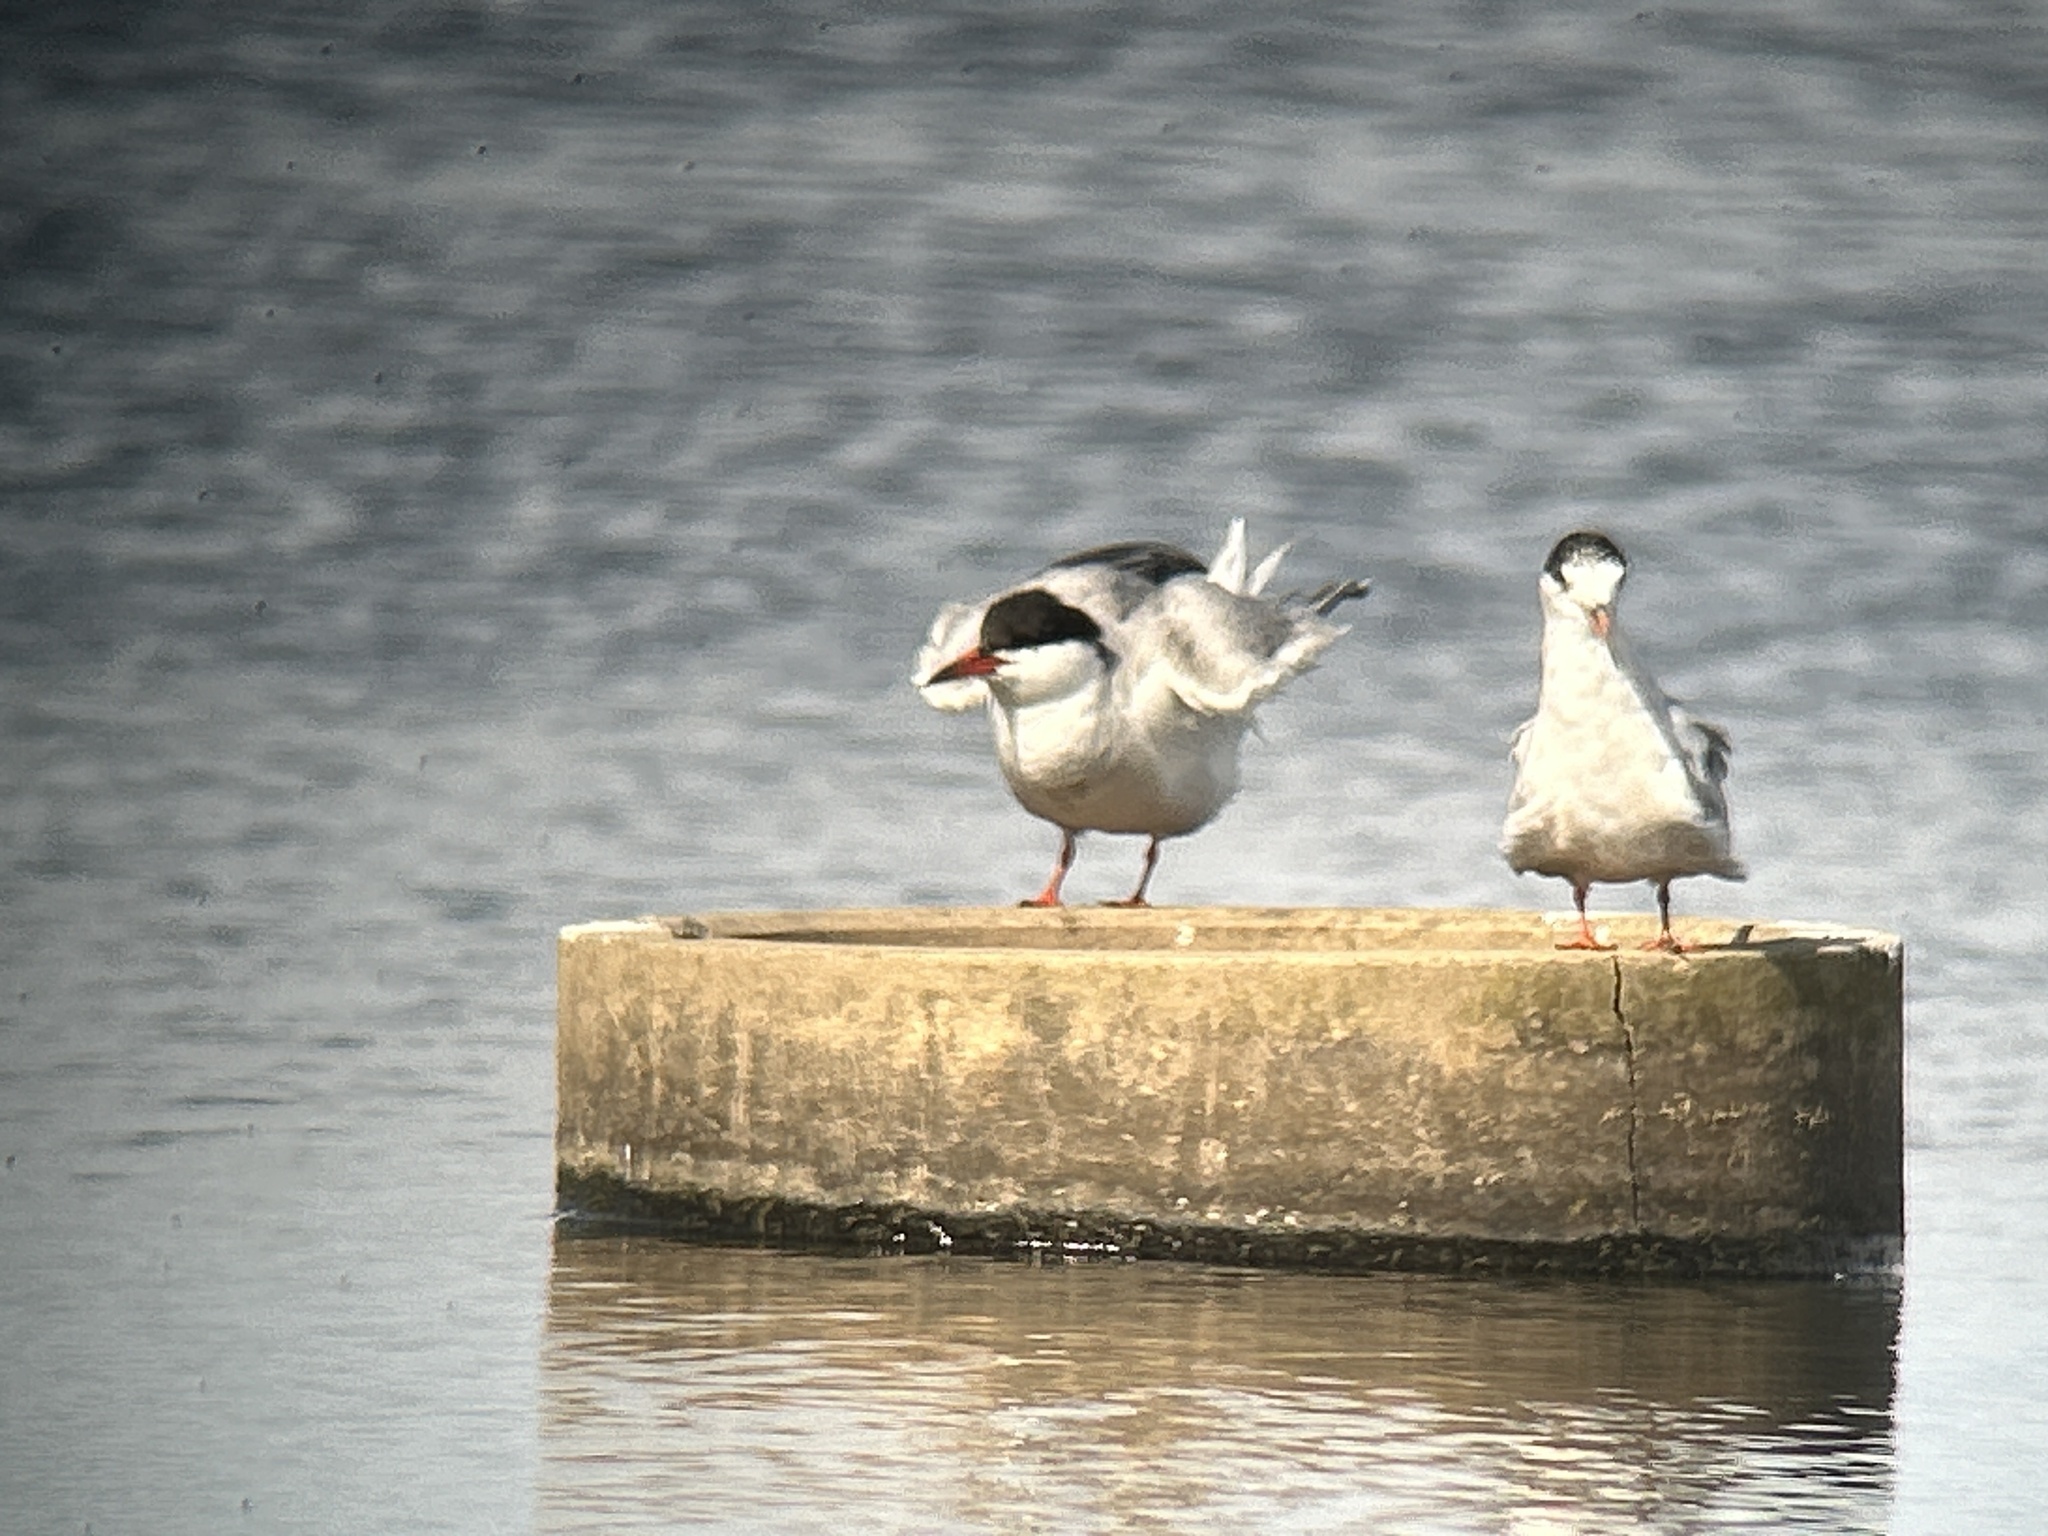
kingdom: Animalia
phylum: Chordata
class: Aves
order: Charadriiformes
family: Laridae
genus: Sterna
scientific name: Sterna hirundo
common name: Common tern
